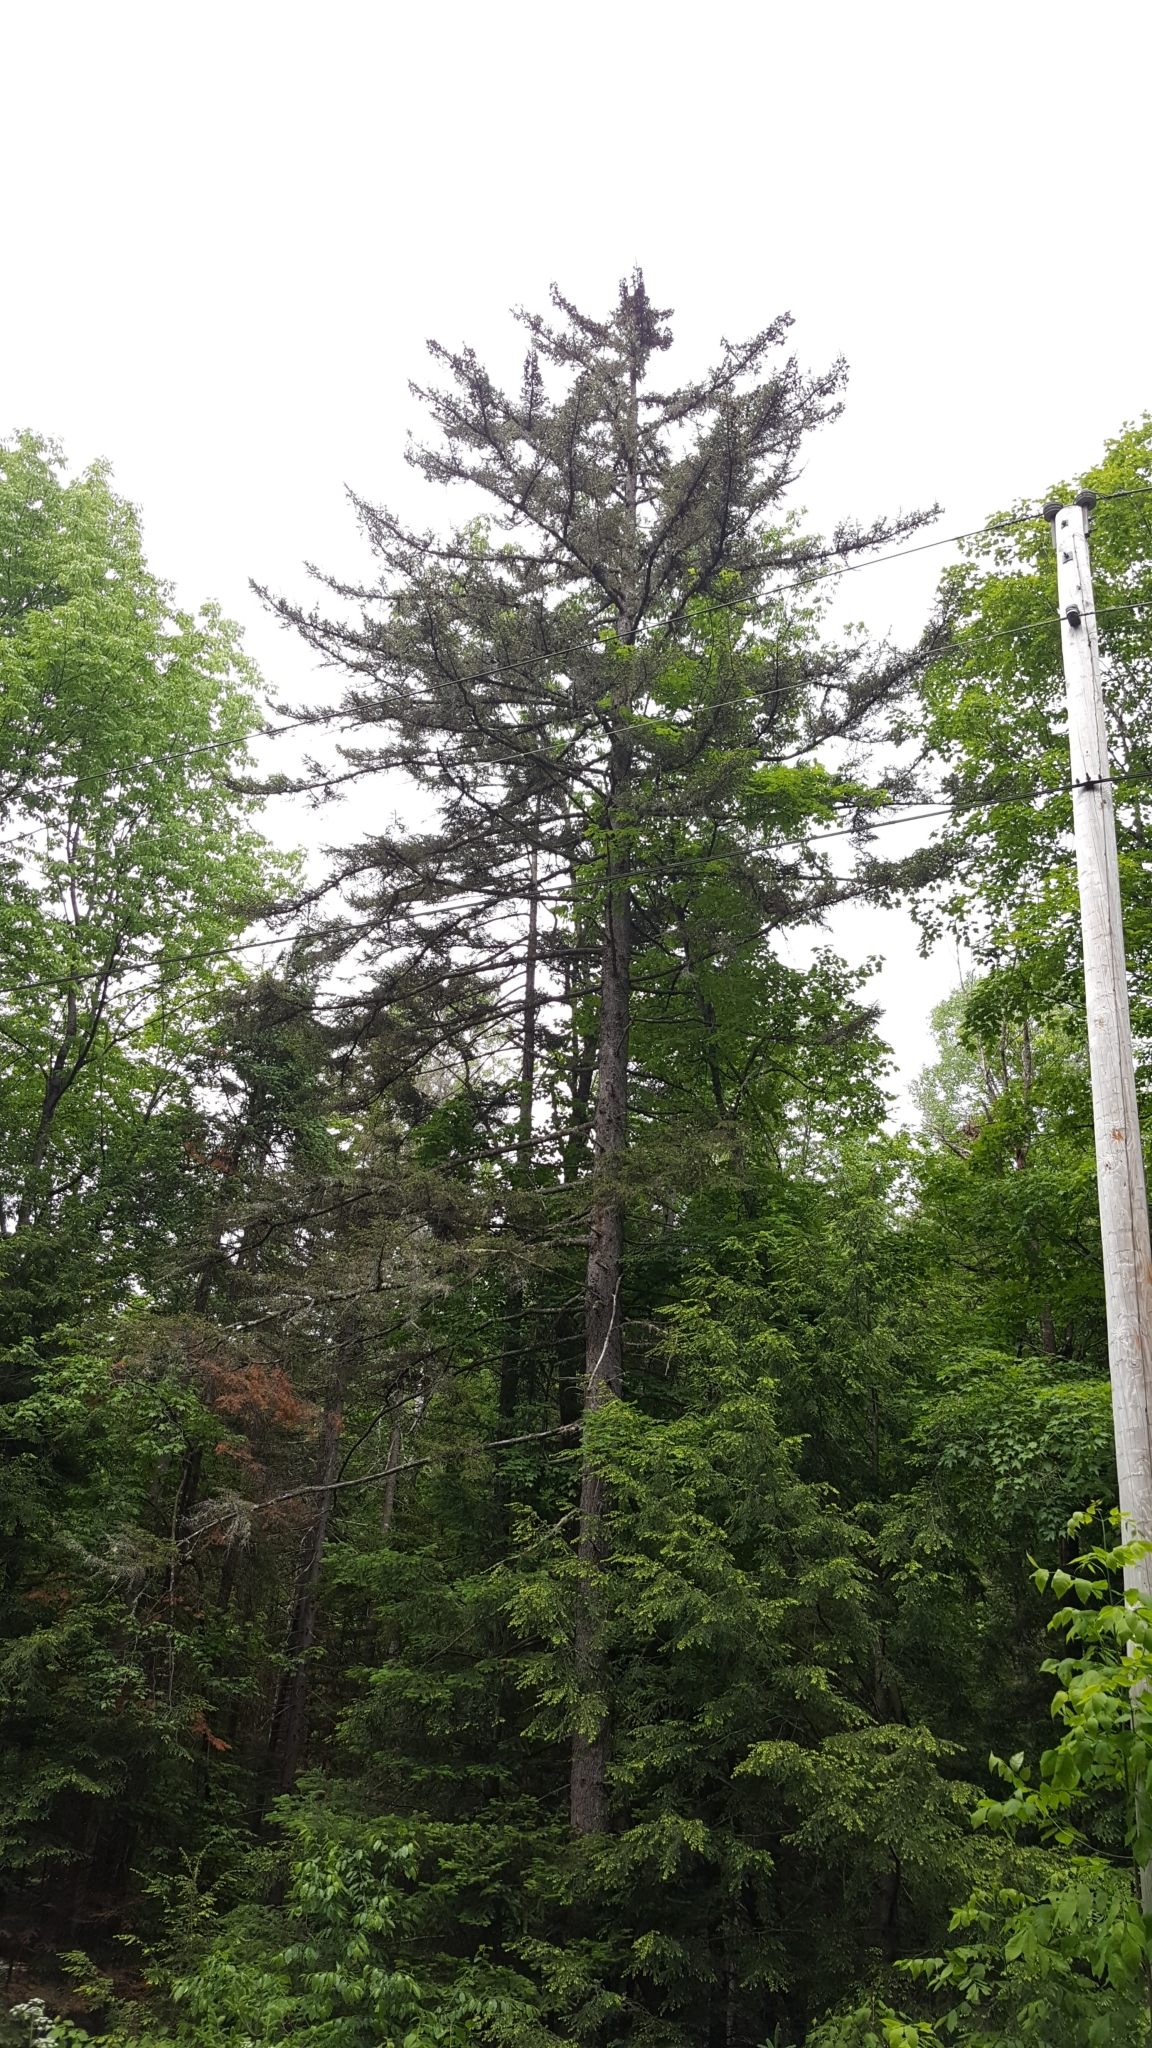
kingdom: Plantae
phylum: Tracheophyta
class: Pinopsida
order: Pinales
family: Pinaceae
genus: Picea
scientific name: Picea rubens
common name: Red spruce
